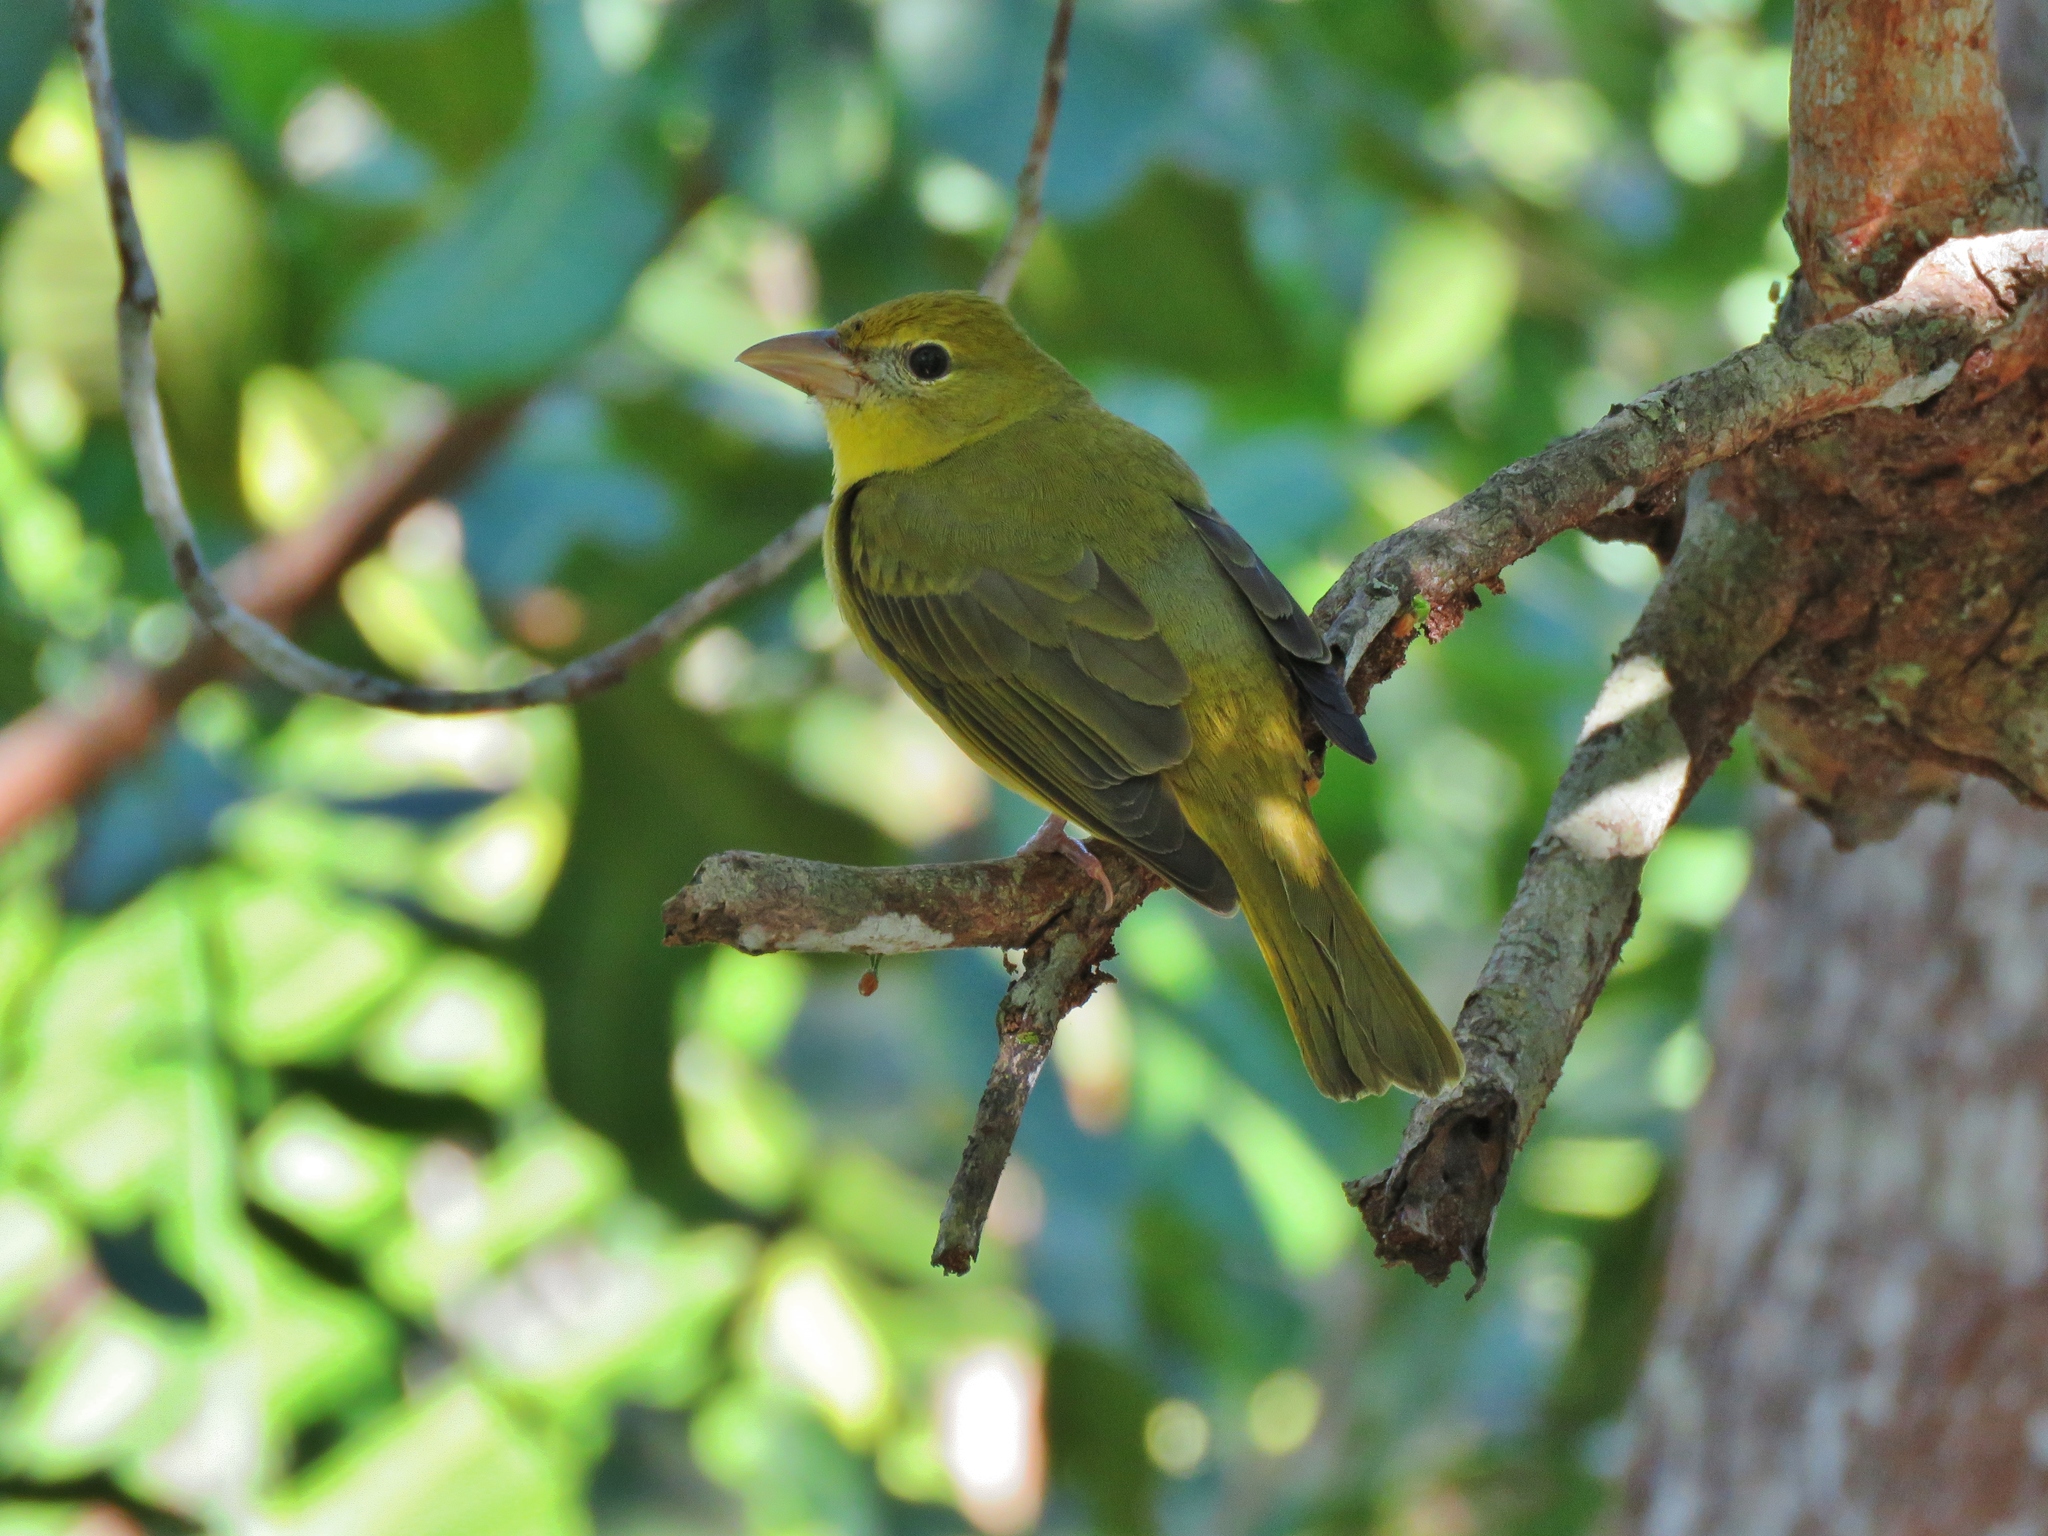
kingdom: Animalia
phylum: Chordata
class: Aves
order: Passeriformes
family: Cardinalidae
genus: Piranga
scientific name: Piranga rubra
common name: Summer tanager
